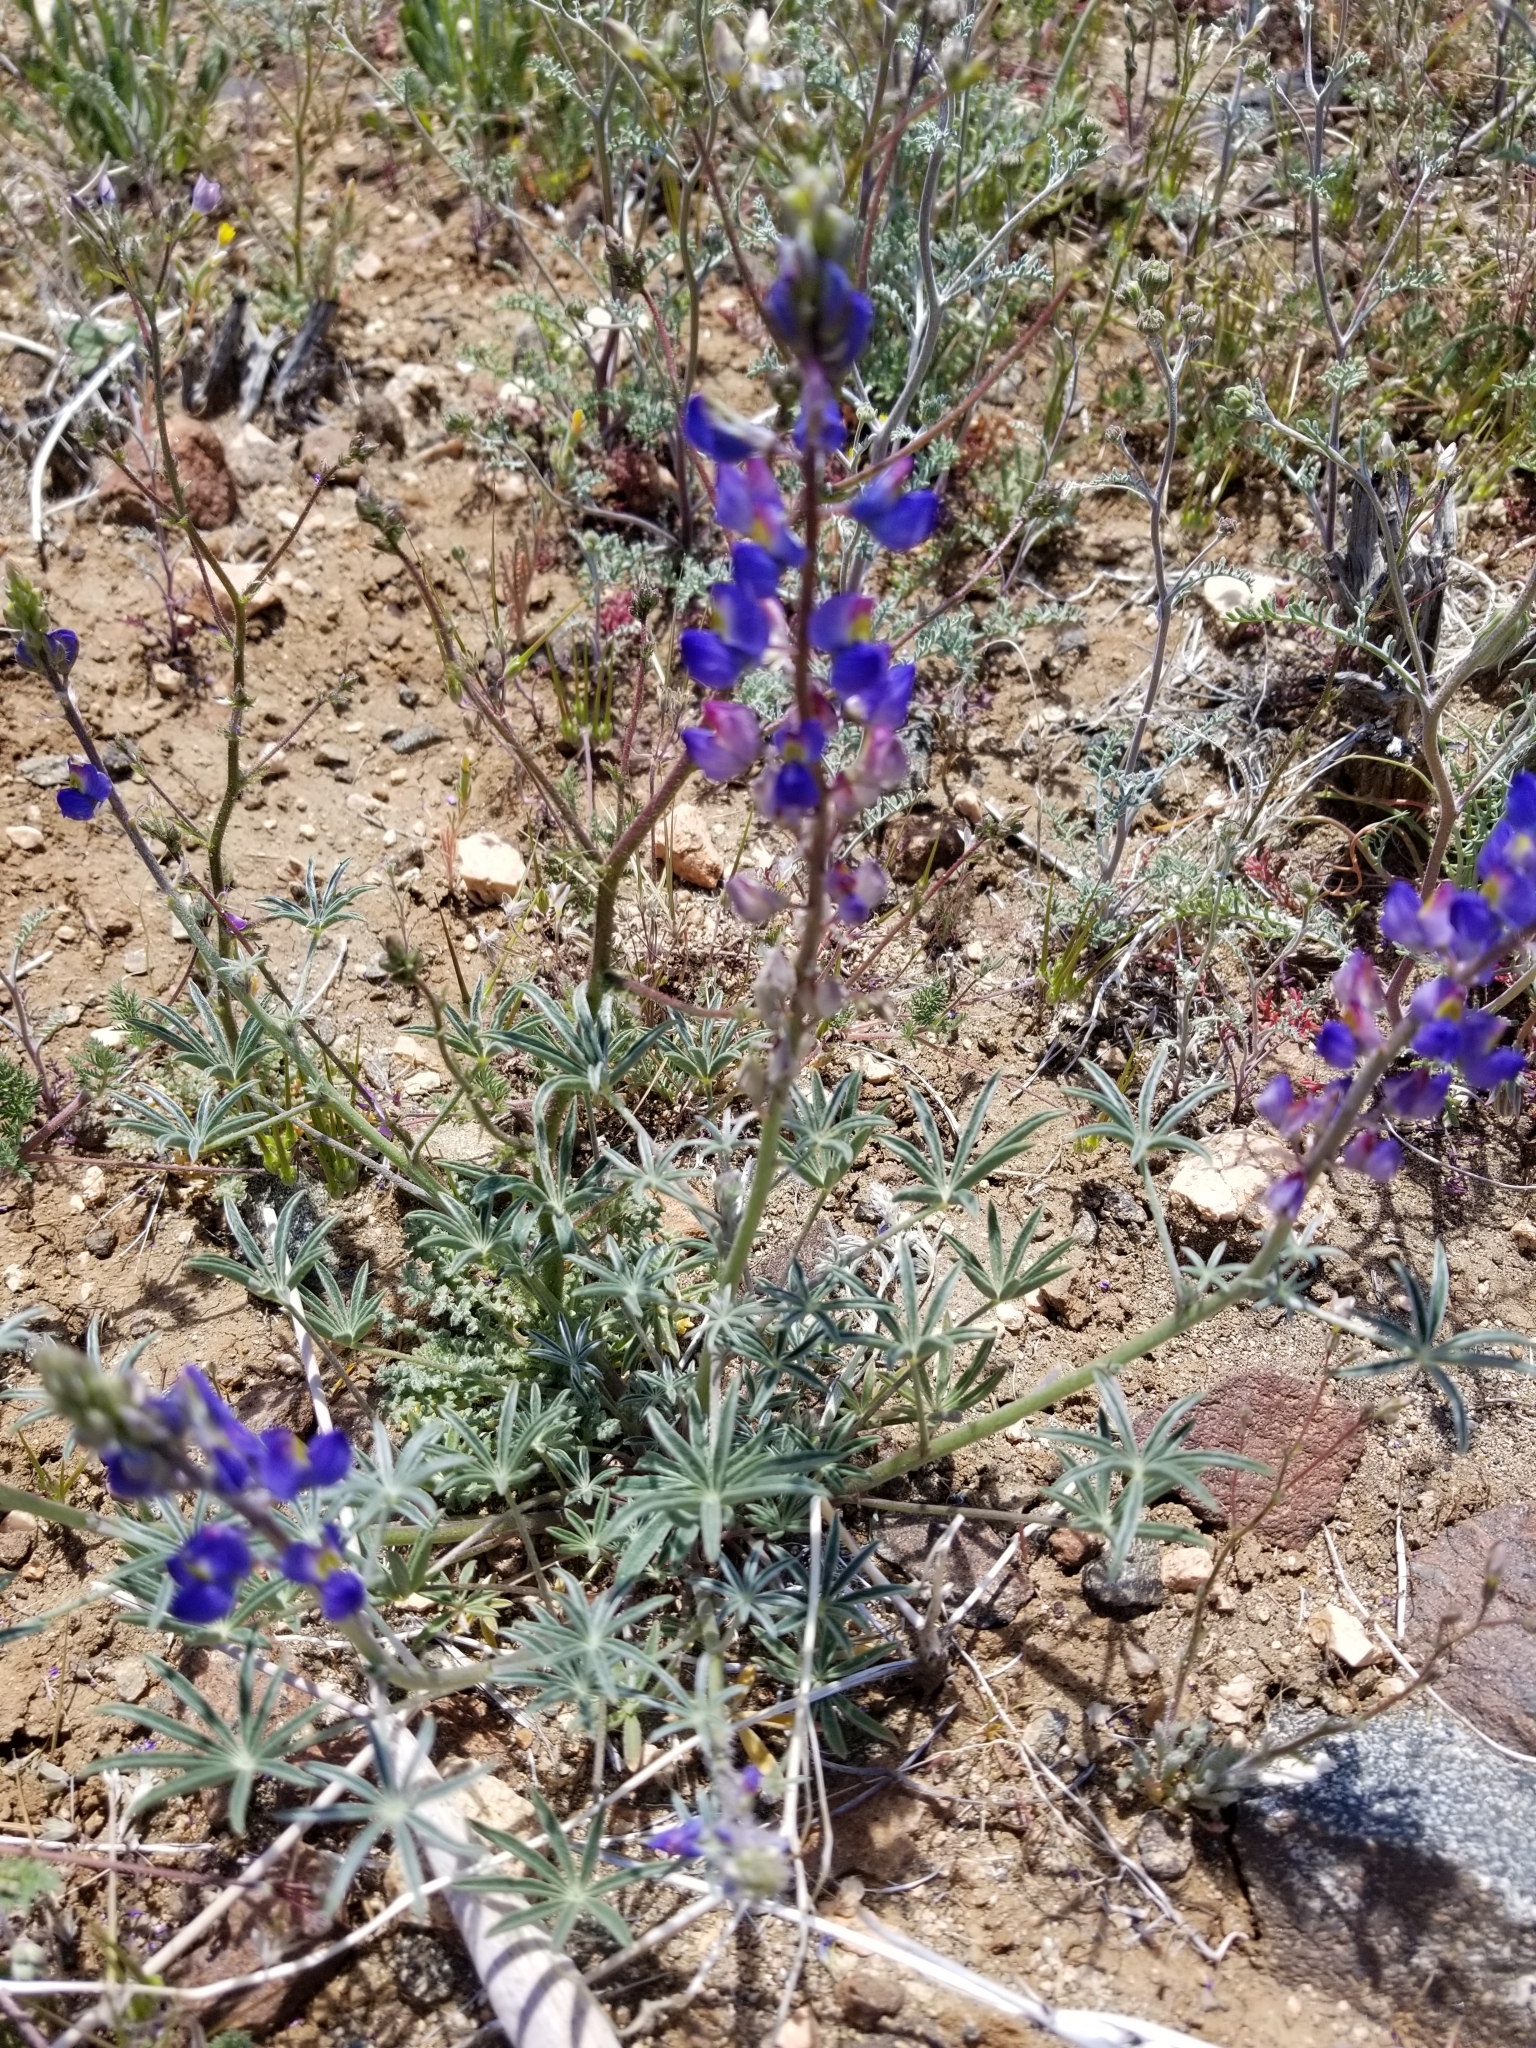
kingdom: Plantae
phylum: Tracheophyta
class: Magnoliopsida
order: Fabales
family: Fabaceae
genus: Lupinus
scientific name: Lupinus sparsiflorus
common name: Coulter's lupine
